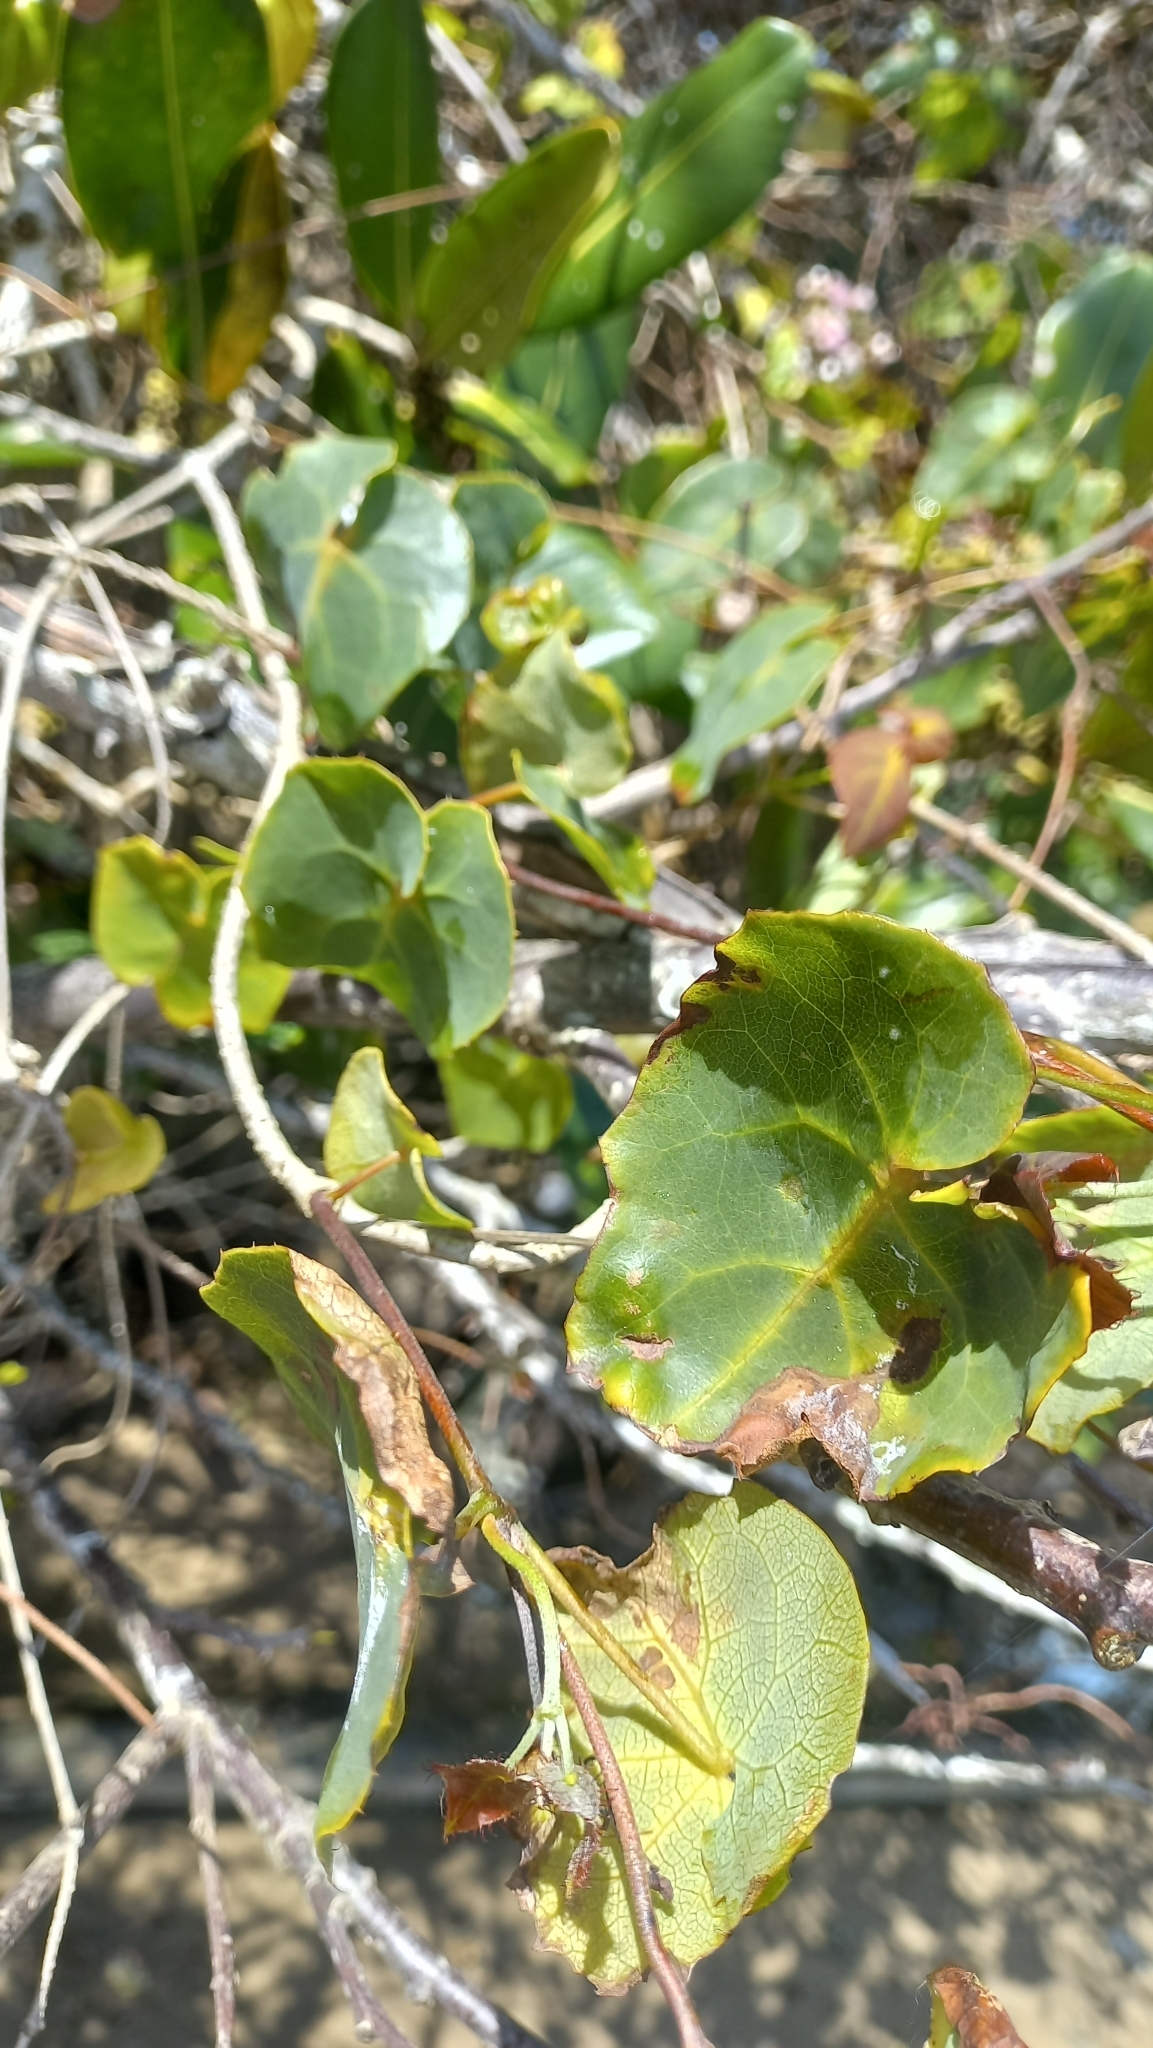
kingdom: Plantae
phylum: Tracheophyta
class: Magnoliopsida
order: Malpighiales
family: Malpighiaceae
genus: Stigmaphyllon
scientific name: Stigmaphyllon ciliatum
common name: Amazonvine
